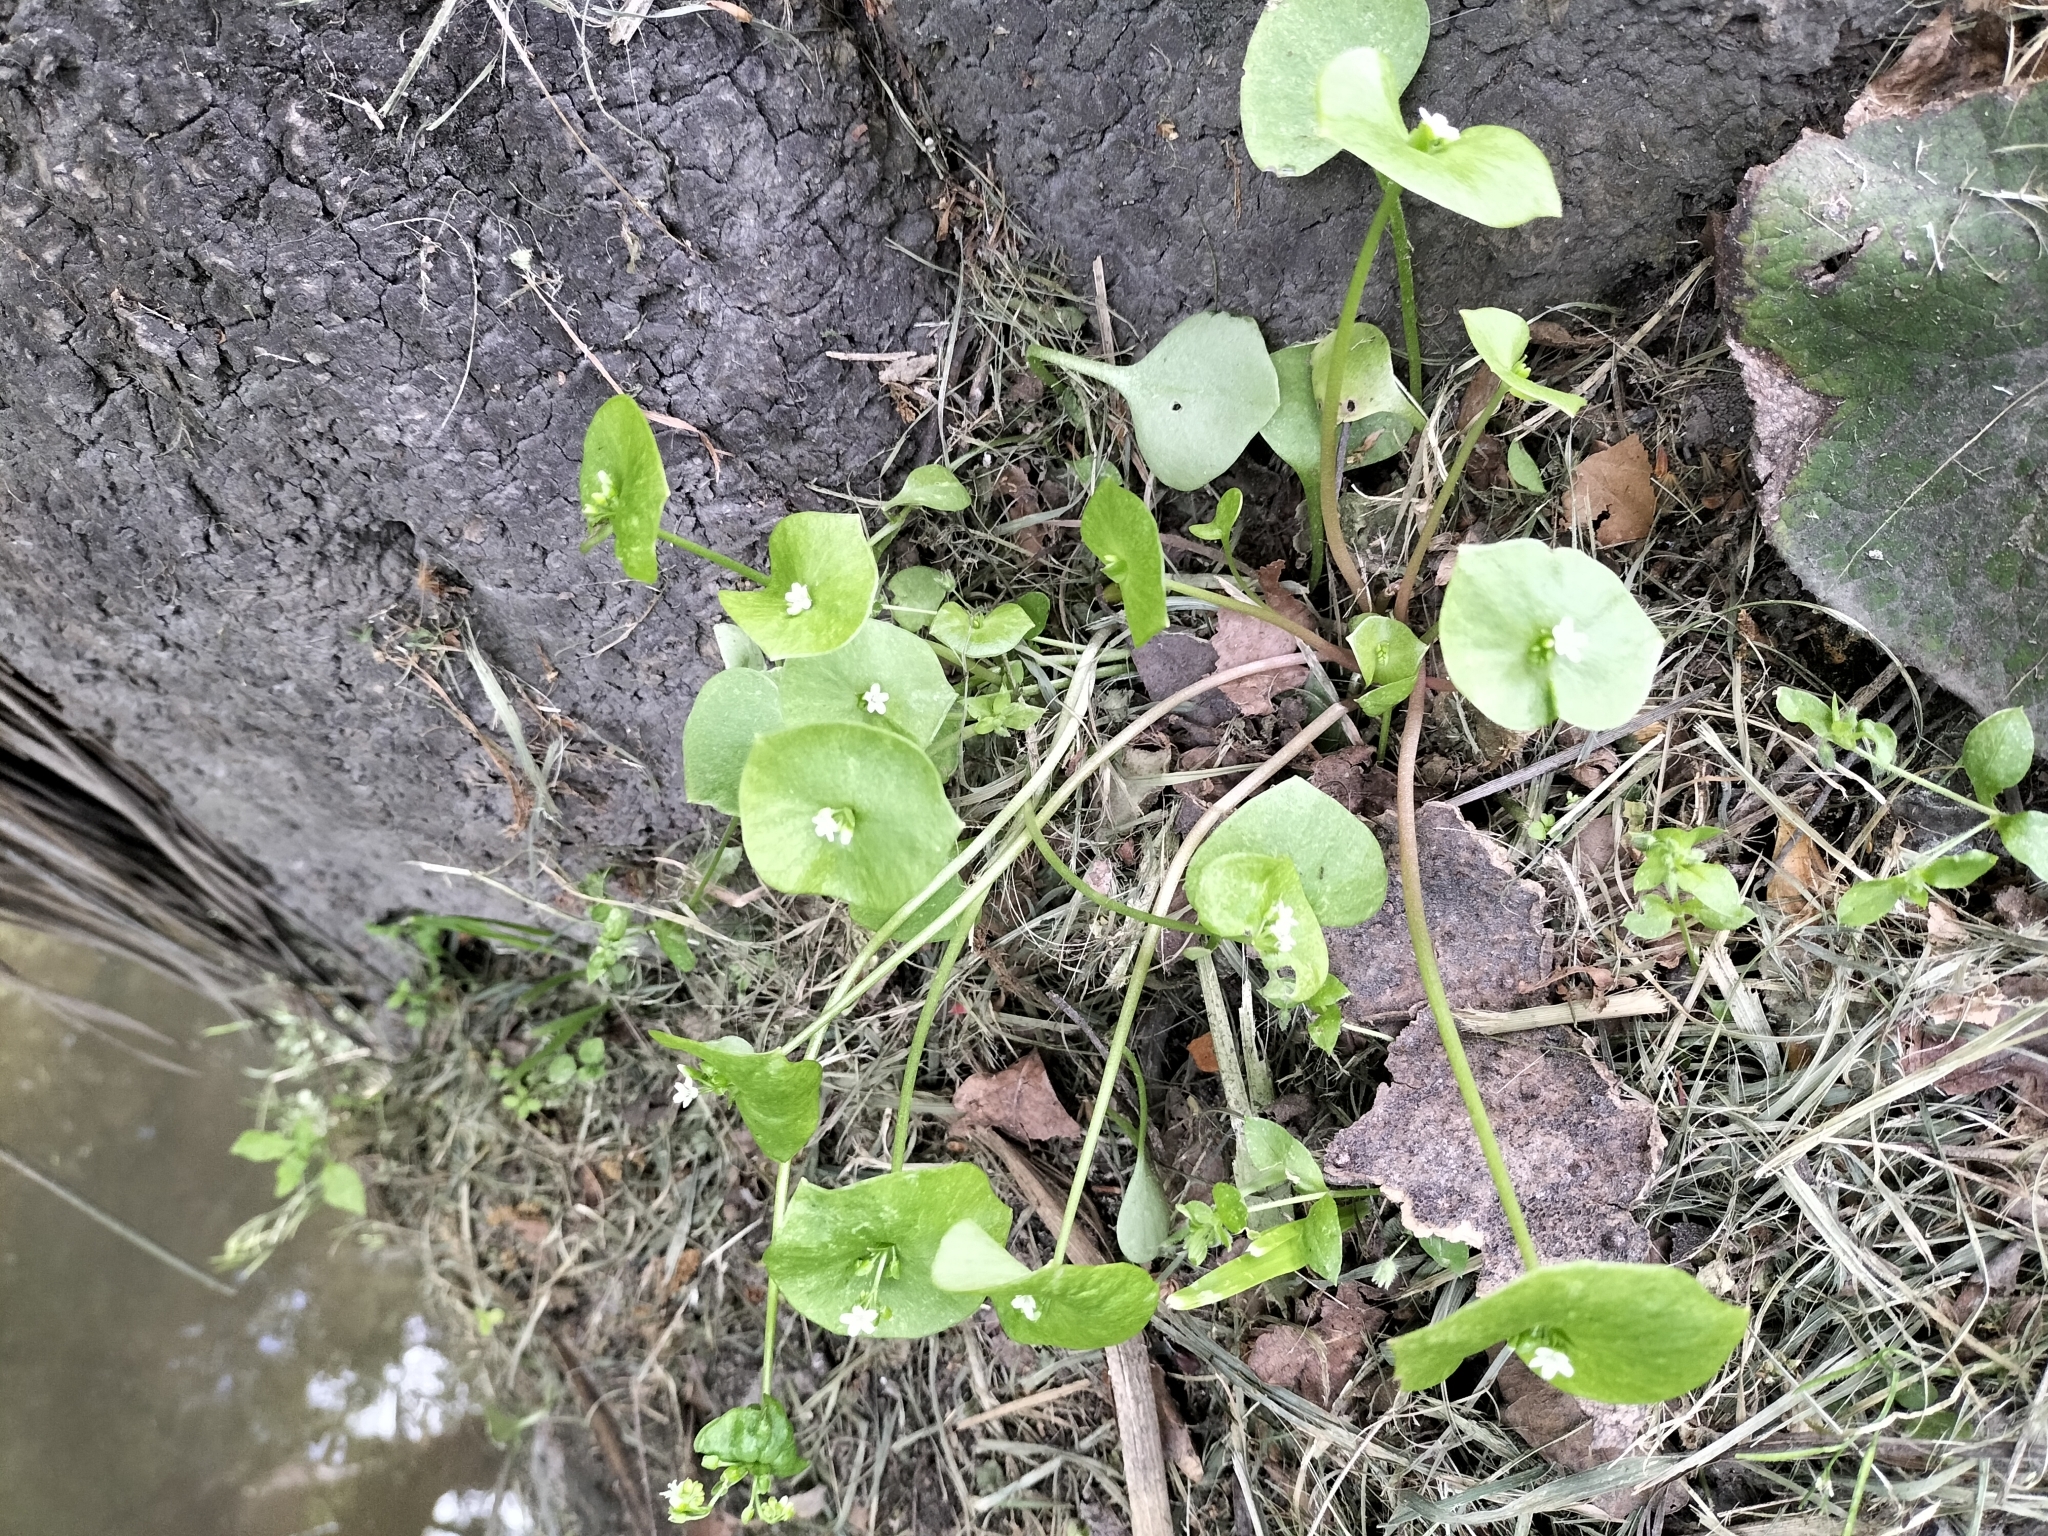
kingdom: Plantae
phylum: Tracheophyta
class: Magnoliopsida
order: Caryophyllales
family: Montiaceae
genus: Claytonia
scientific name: Claytonia perfoliata
